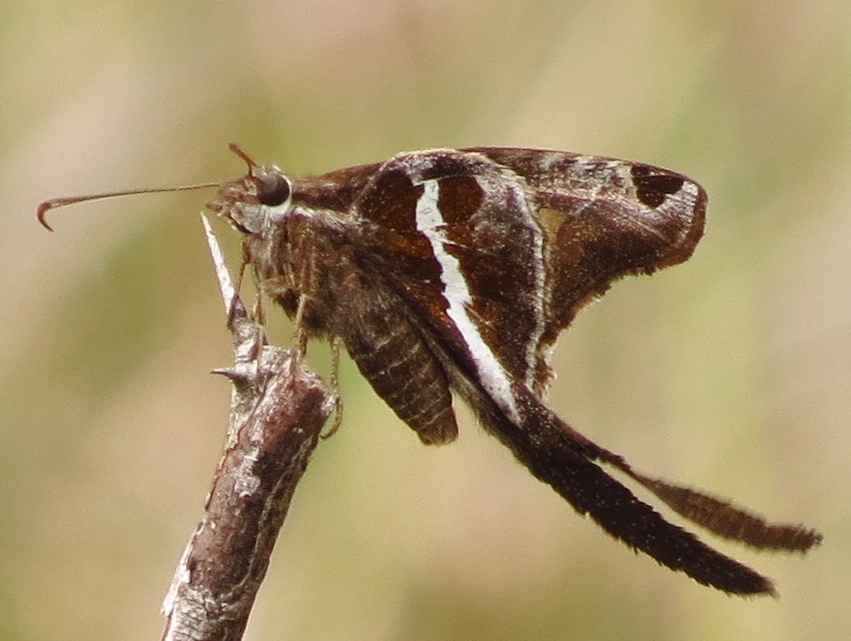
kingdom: Animalia
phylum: Arthropoda
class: Insecta
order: Lepidoptera
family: Hesperiidae
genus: Chioides
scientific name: Chioides catillus
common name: Silverbanded skipper
